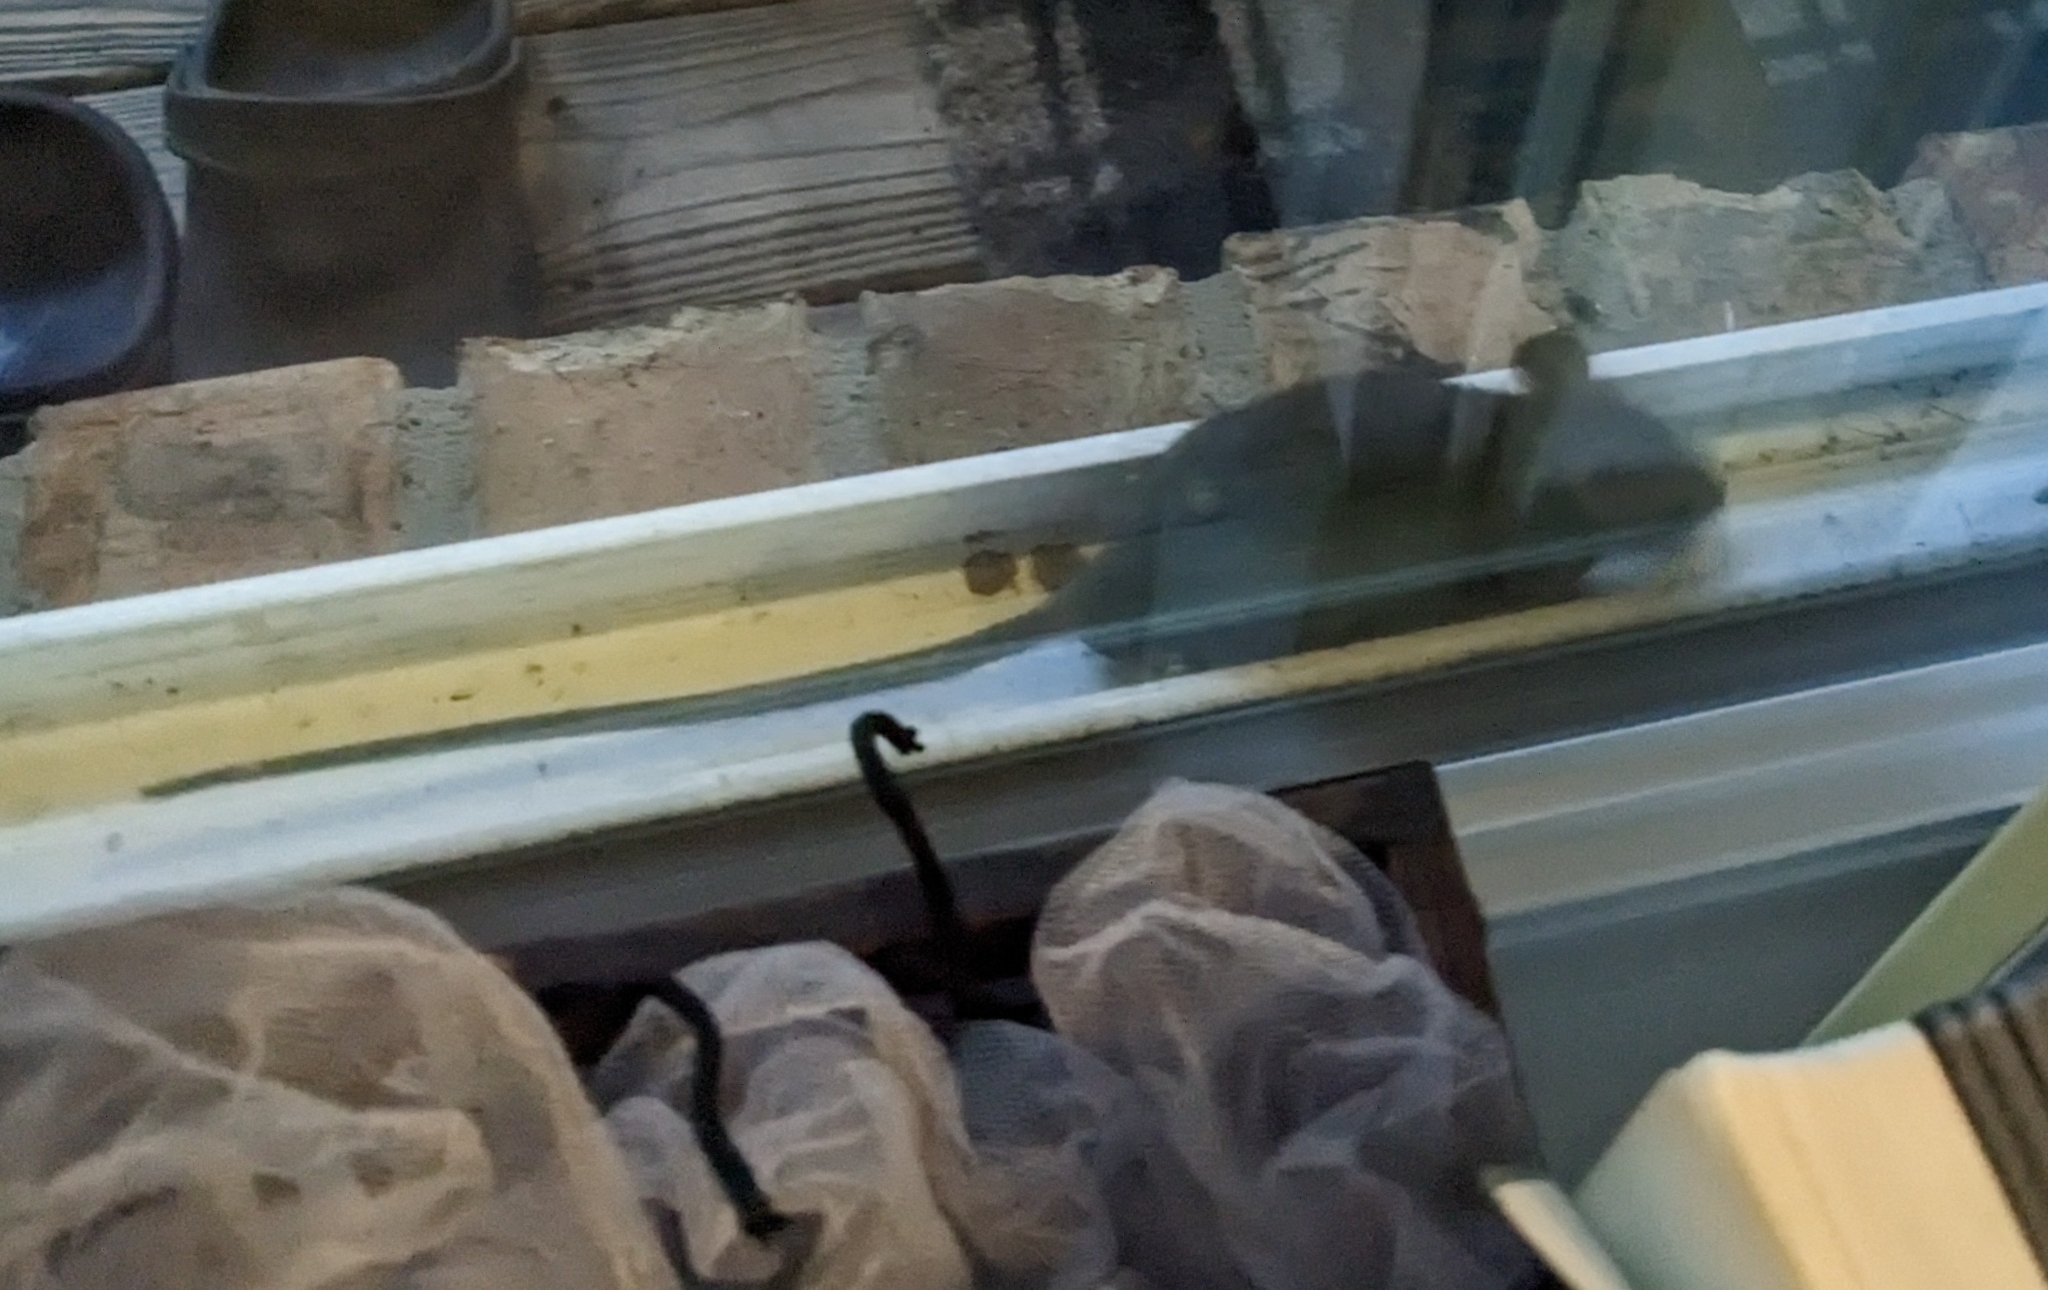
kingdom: Animalia
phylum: Chordata
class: Mammalia
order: Rodentia
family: Muridae
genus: Rattus
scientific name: Rattus rattus
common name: Black rat
